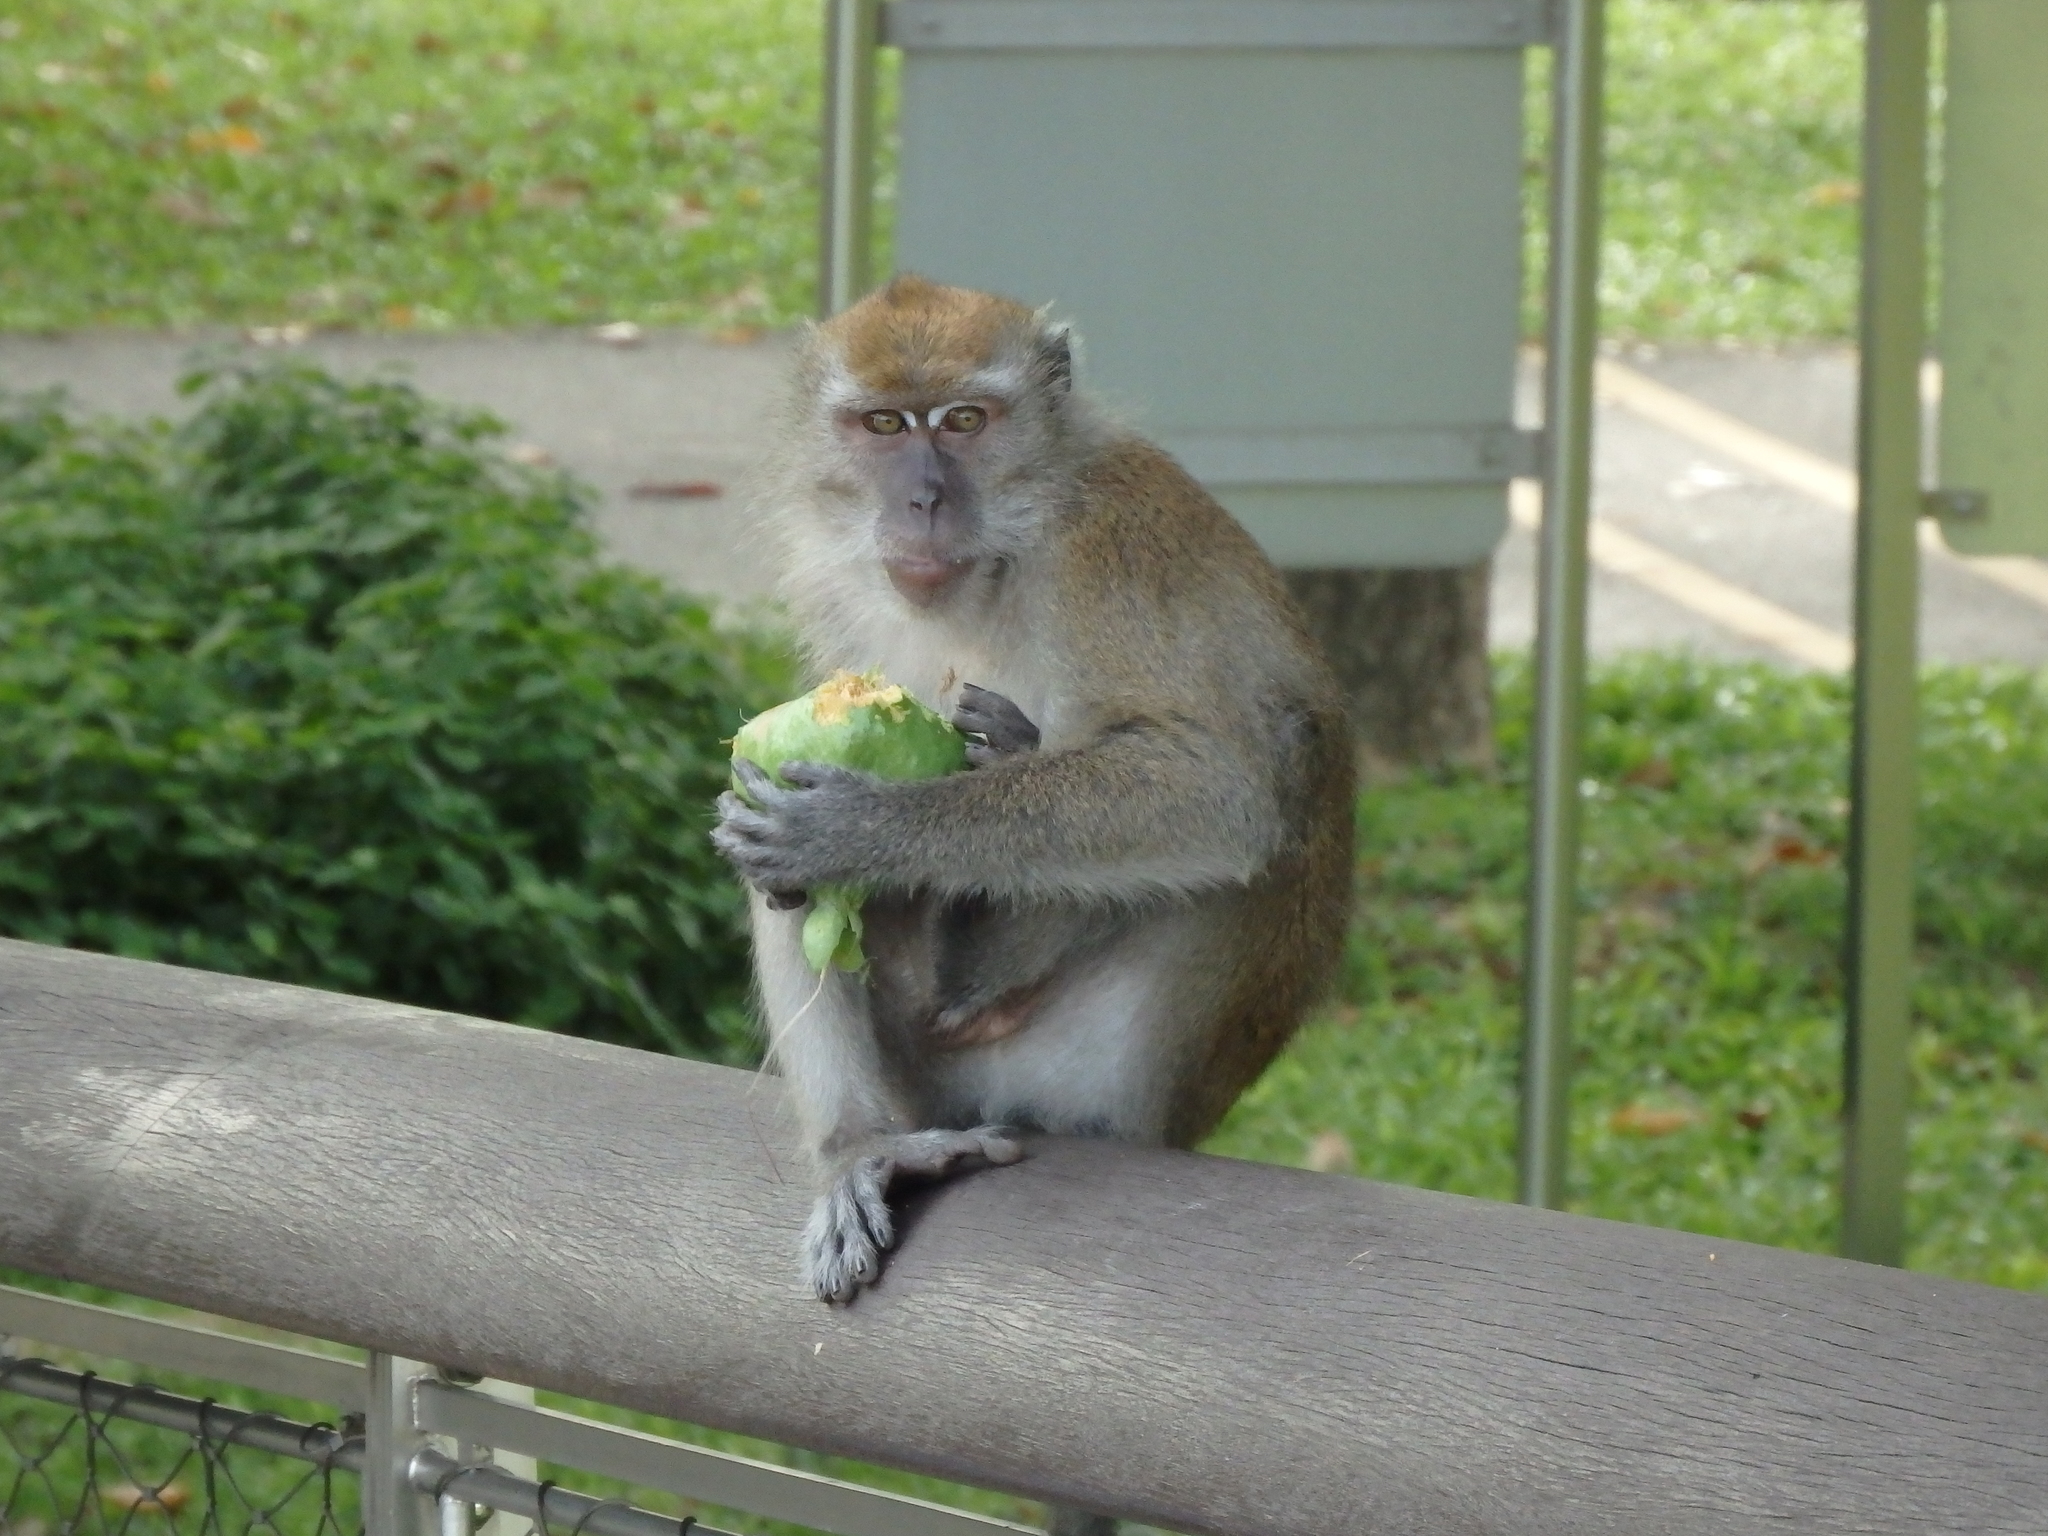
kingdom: Animalia
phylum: Chordata
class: Mammalia
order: Primates
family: Cercopithecidae
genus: Macaca
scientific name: Macaca fascicularis
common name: Crab-eating macaque
